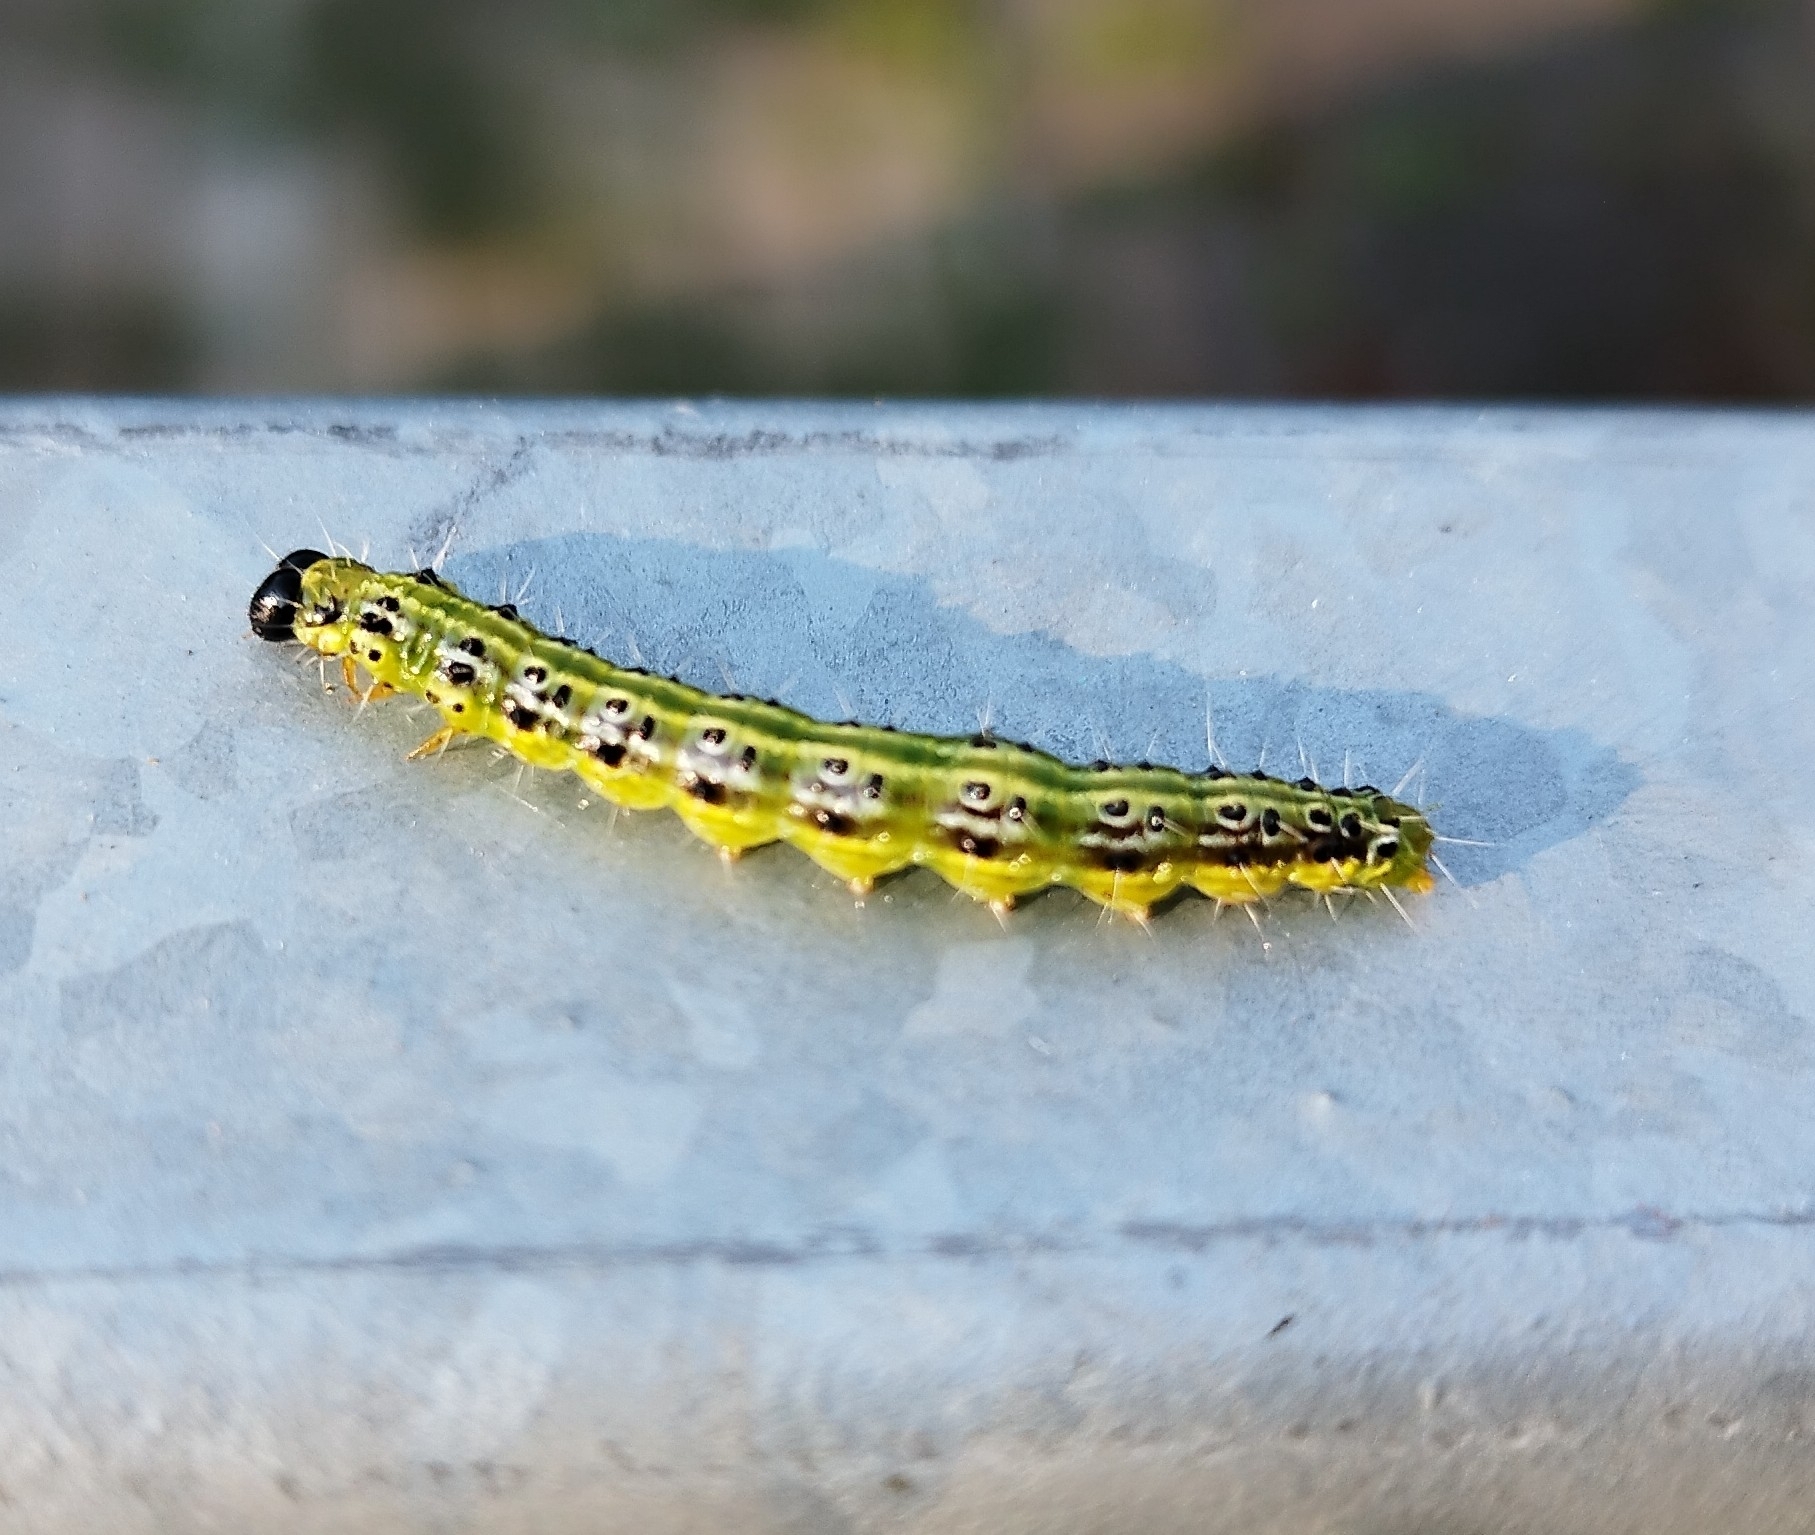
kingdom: Animalia
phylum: Arthropoda
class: Insecta
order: Lepidoptera
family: Crambidae
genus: Cydalima
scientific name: Cydalima perspectalis
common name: Box tree moth
